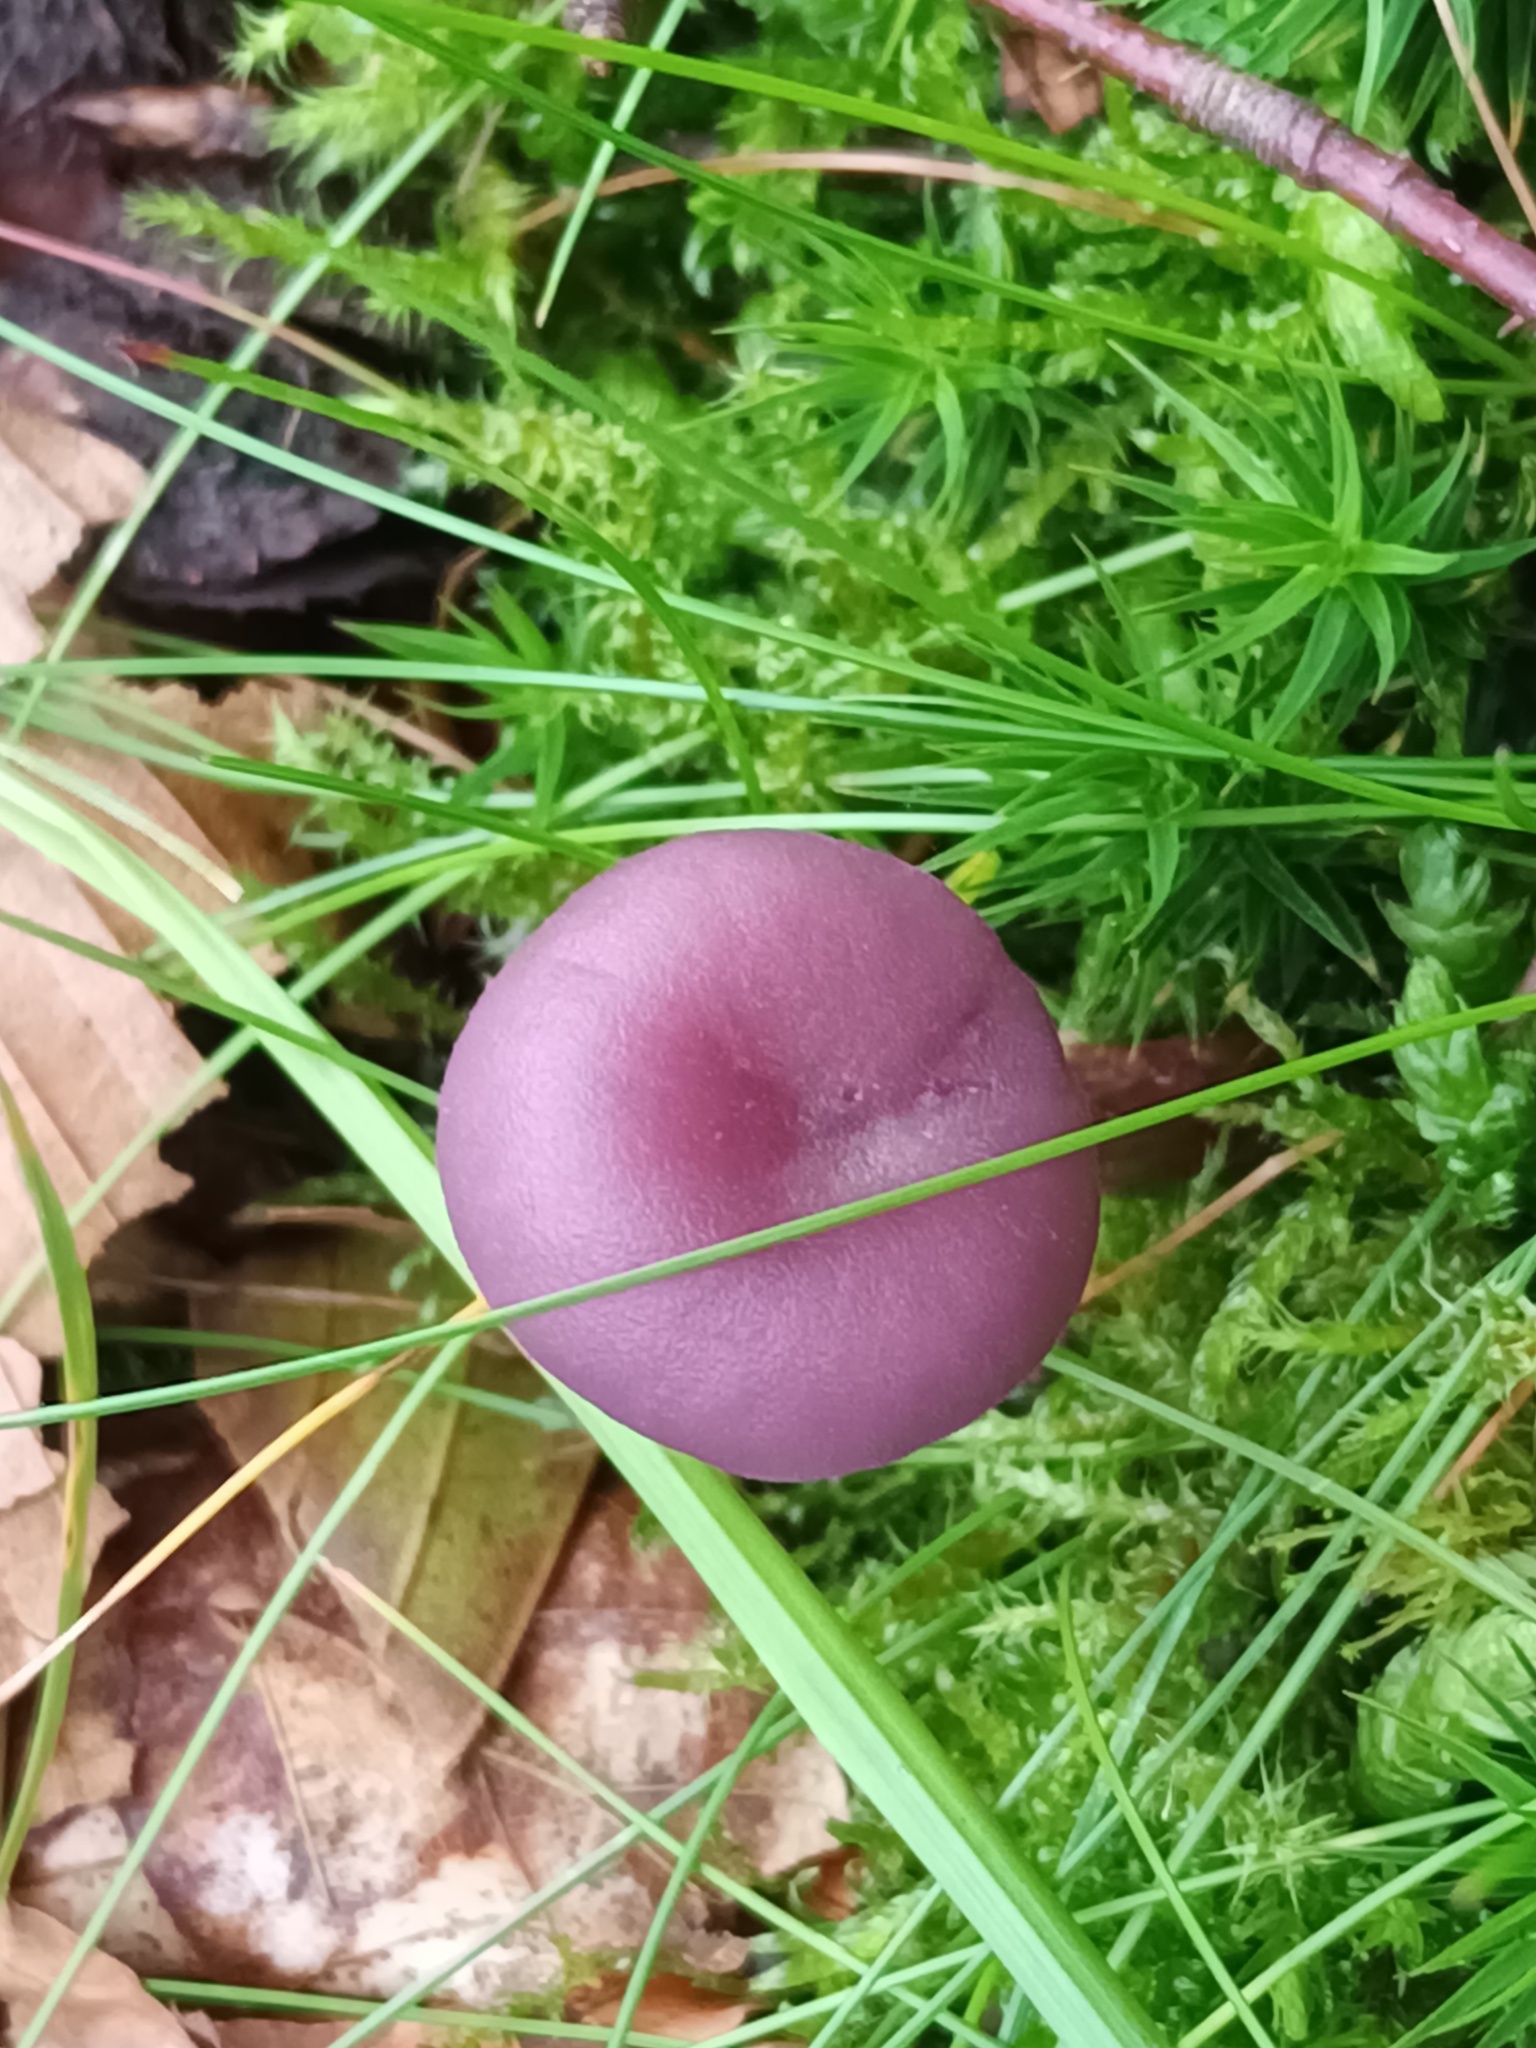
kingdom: Fungi
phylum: Basidiomycota
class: Agaricomycetes
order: Agaricales
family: Hydnangiaceae
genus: Laccaria
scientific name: Laccaria amethystina
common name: Amethyst deceiver
